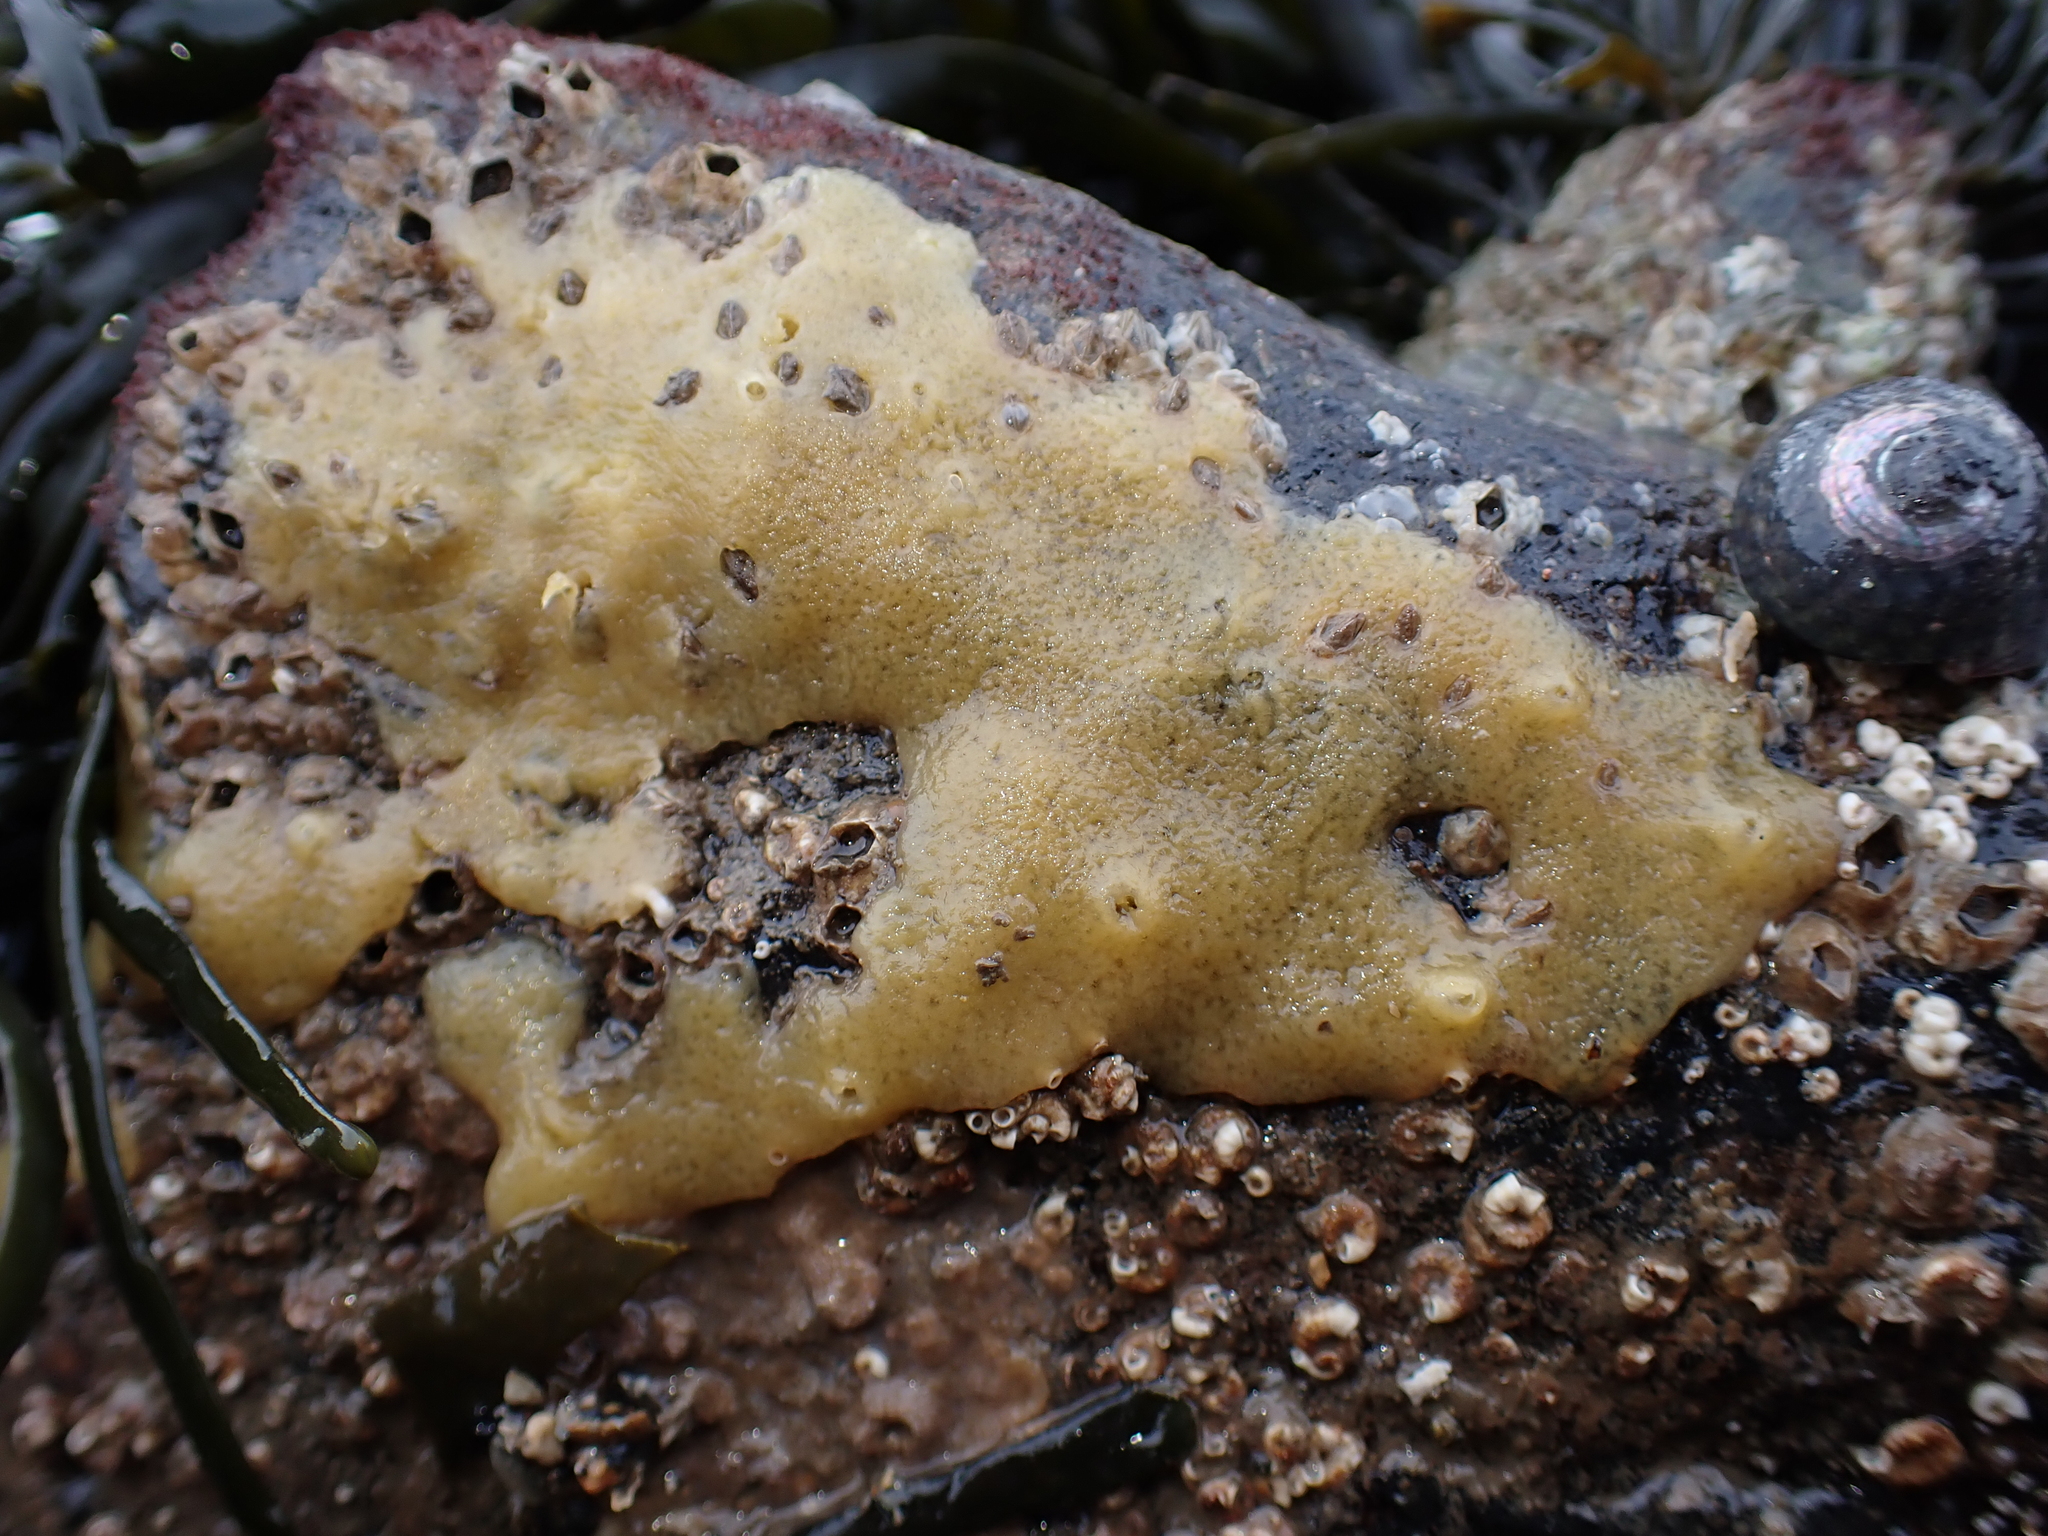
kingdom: Animalia
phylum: Porifera
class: Demospongiae
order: Suberitida
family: Halichondriidae
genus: Halichondria
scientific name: Halichondria panicea
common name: Breadcrumb sponge
